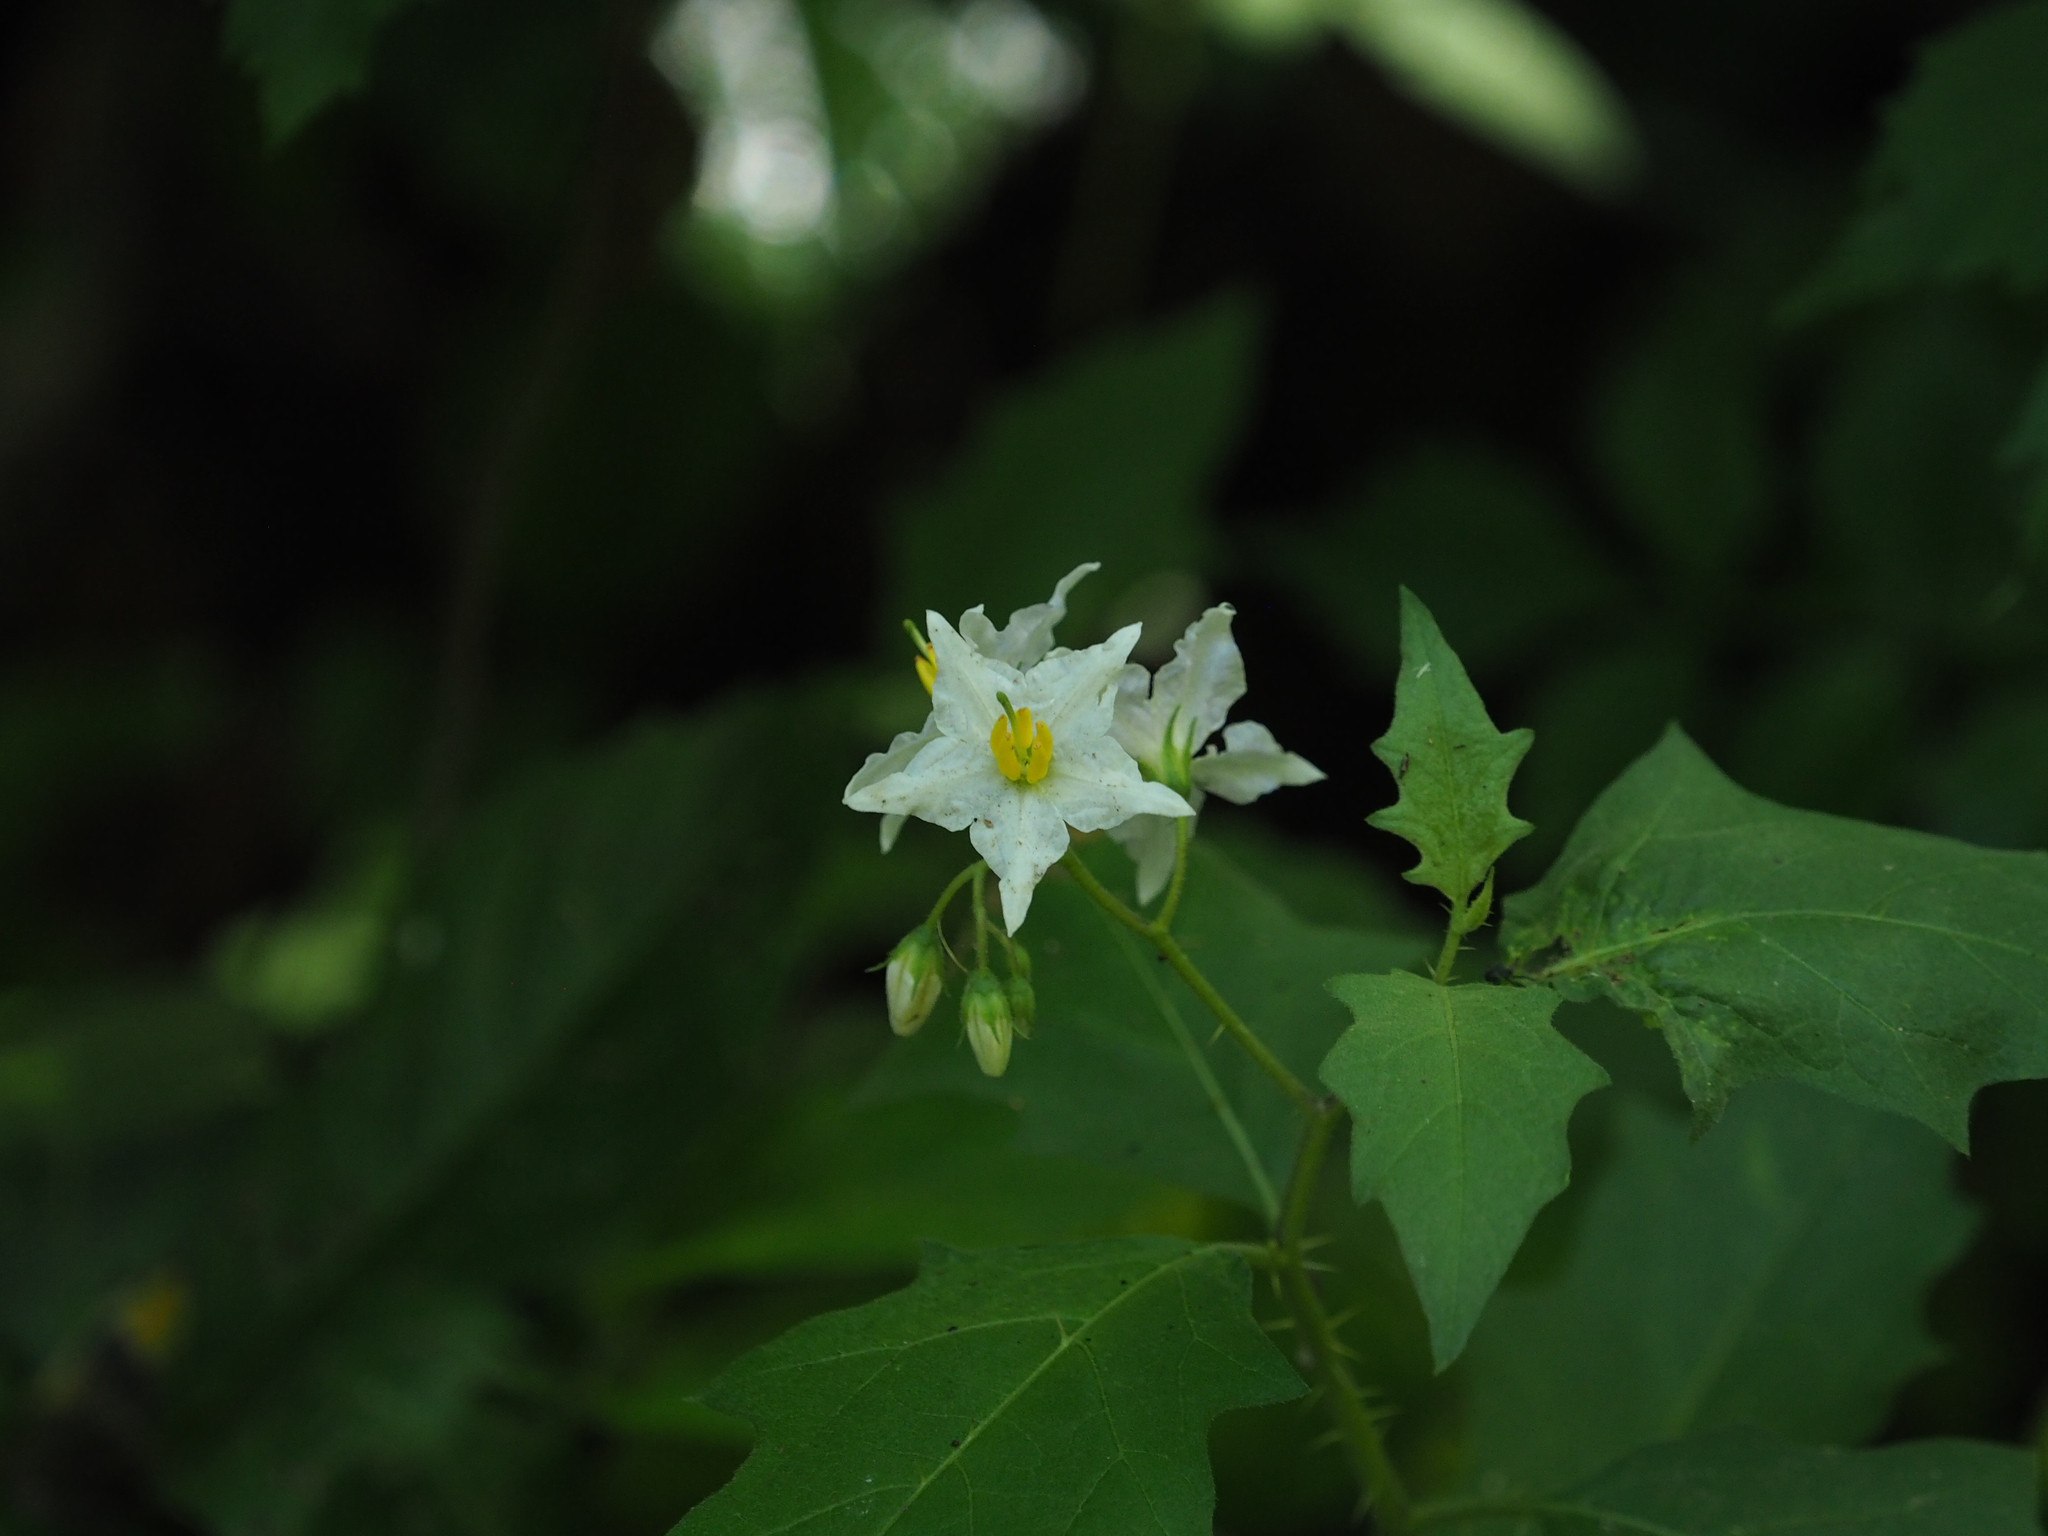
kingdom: Plantae
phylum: Tracheophyta
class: Magnoliopsida
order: Solanales
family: Solanaceae
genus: Solanum
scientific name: Solanum carolinense
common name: Horse-nettle
